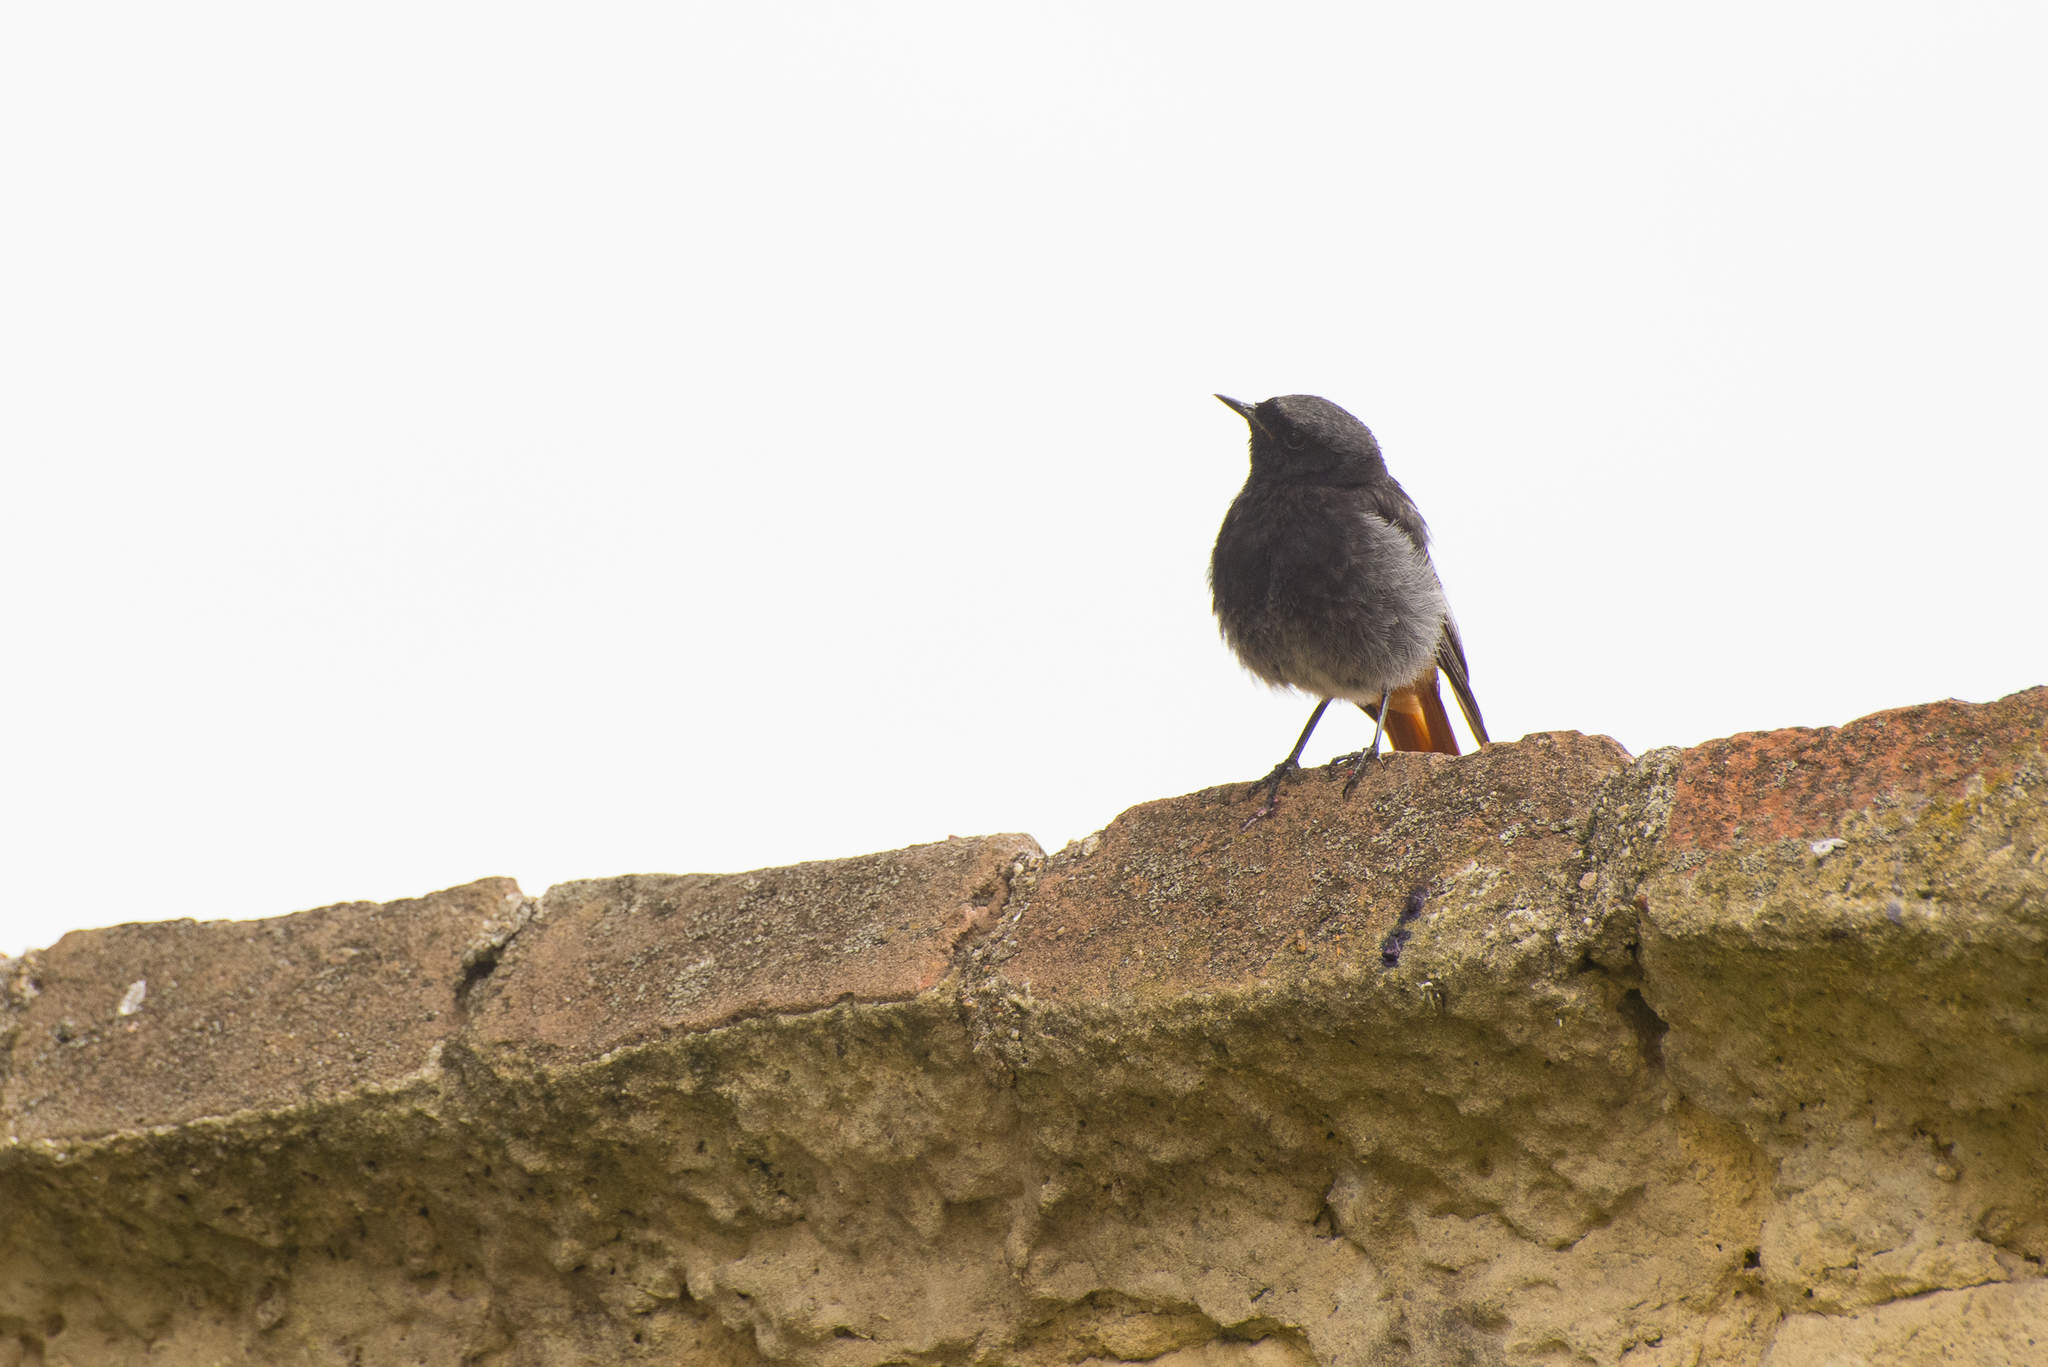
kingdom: Animalia
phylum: Chordata
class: Aves
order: Passeriformes
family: Muscicapidae
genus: Phoenicurus
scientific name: Phoenicurus ochruros
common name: Black redstart
